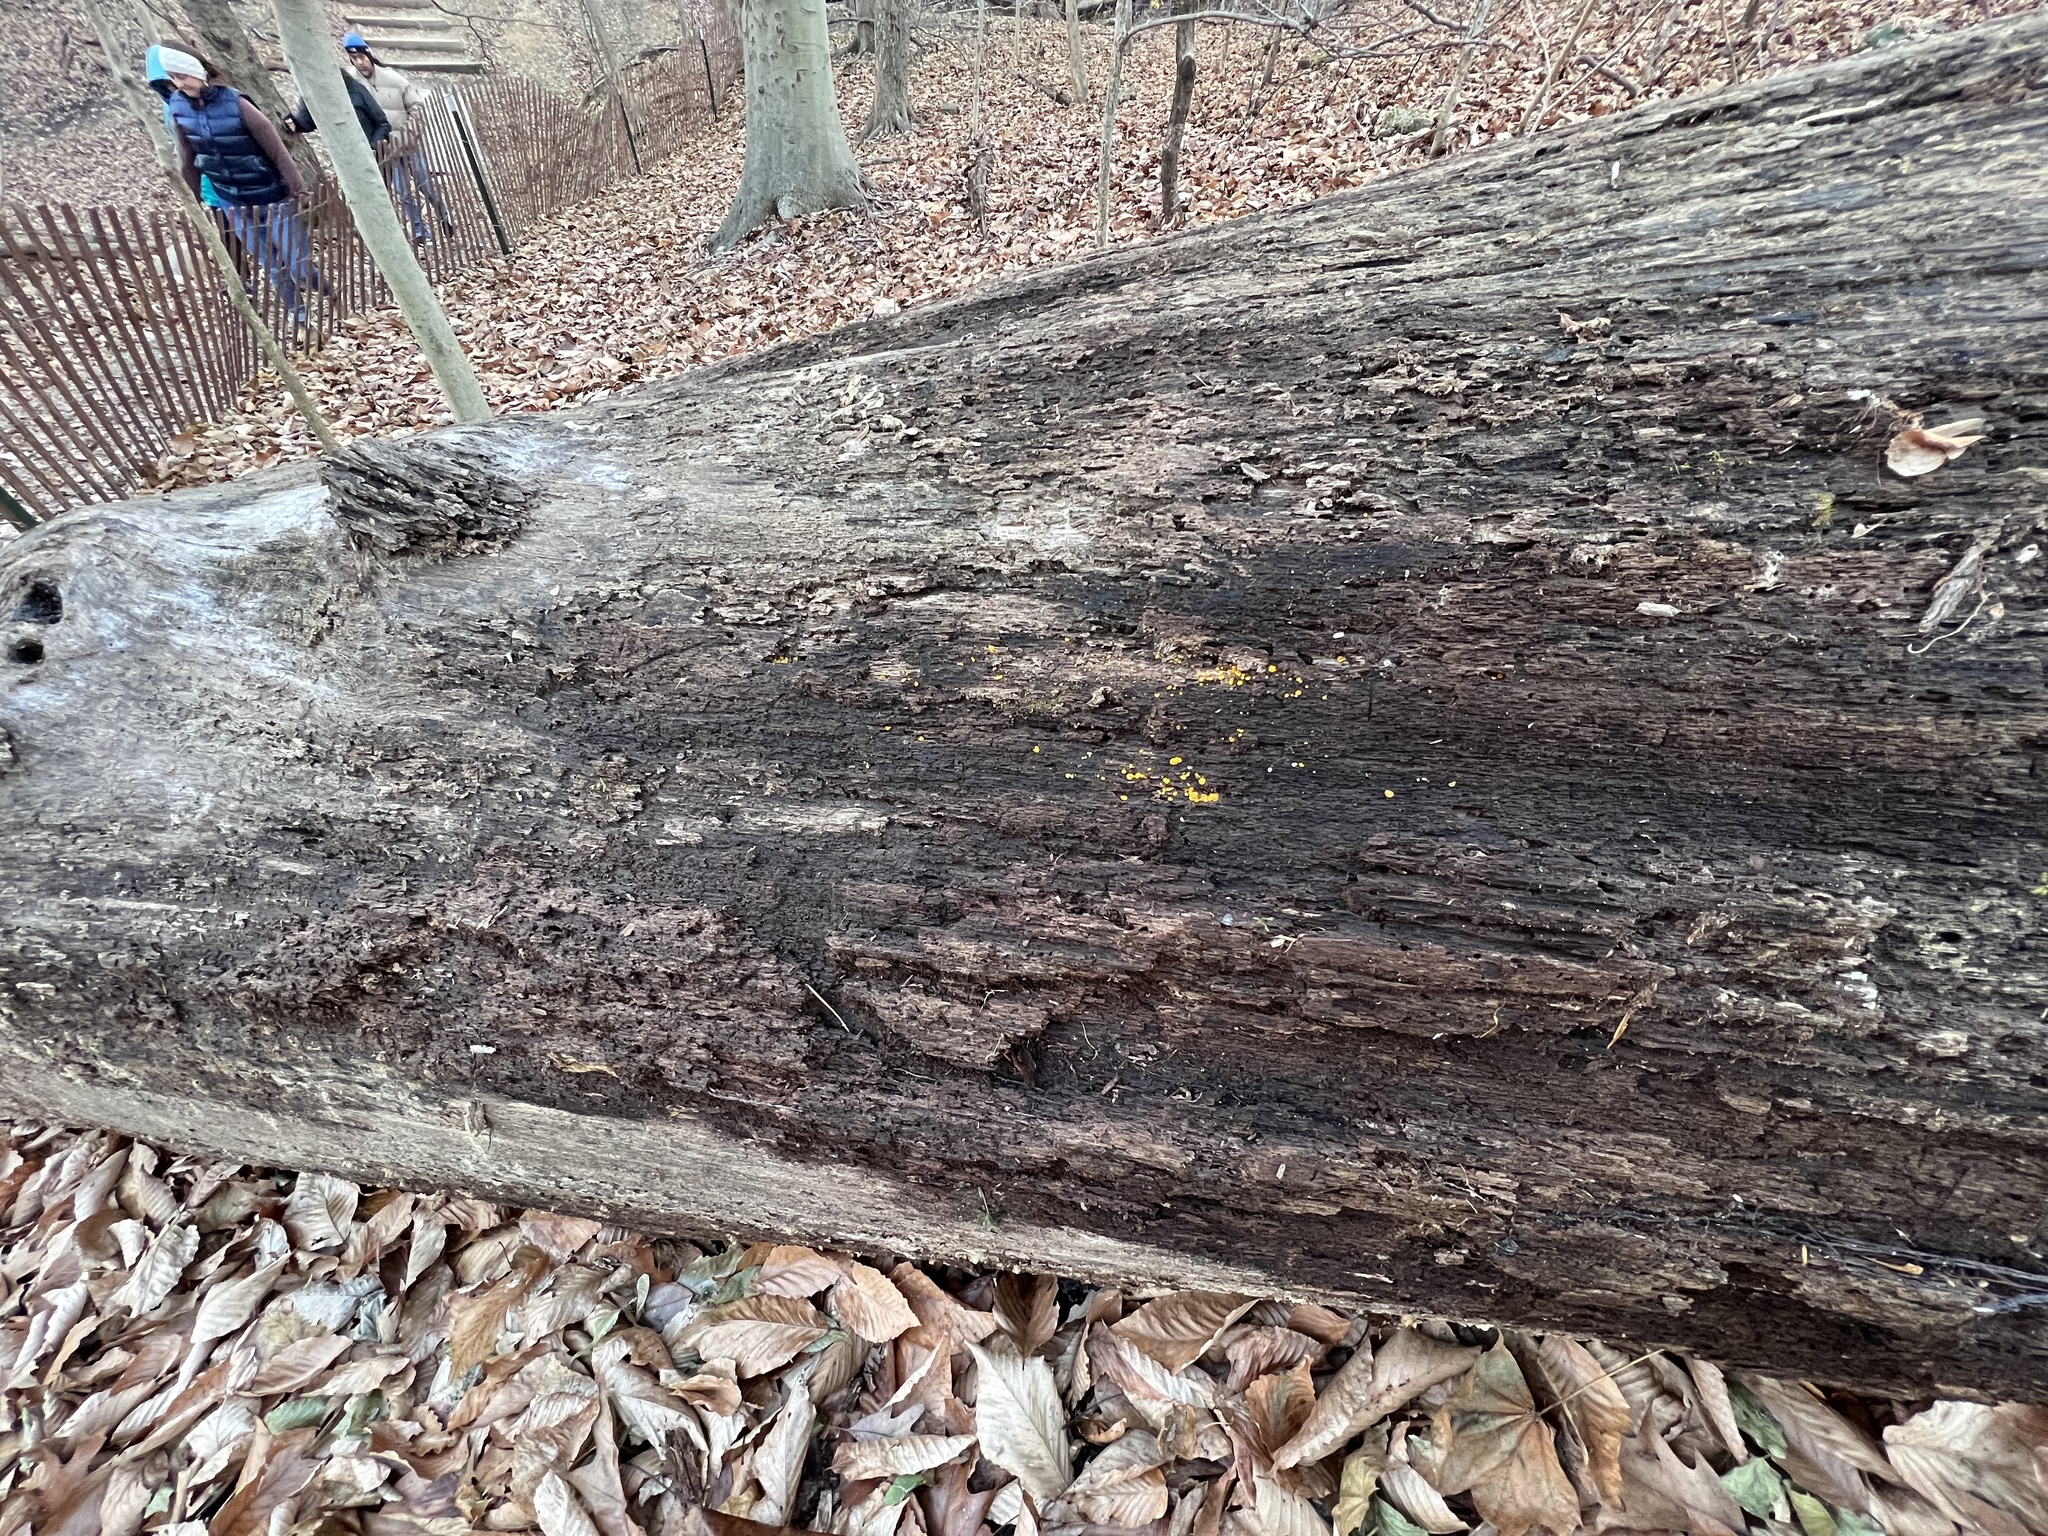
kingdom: Fungi
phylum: Ascomycota
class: Leotiomycetes
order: Helotiales
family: Pezizellaceae
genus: Calycina
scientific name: Calycina citrina
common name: Yellow fairy cups
